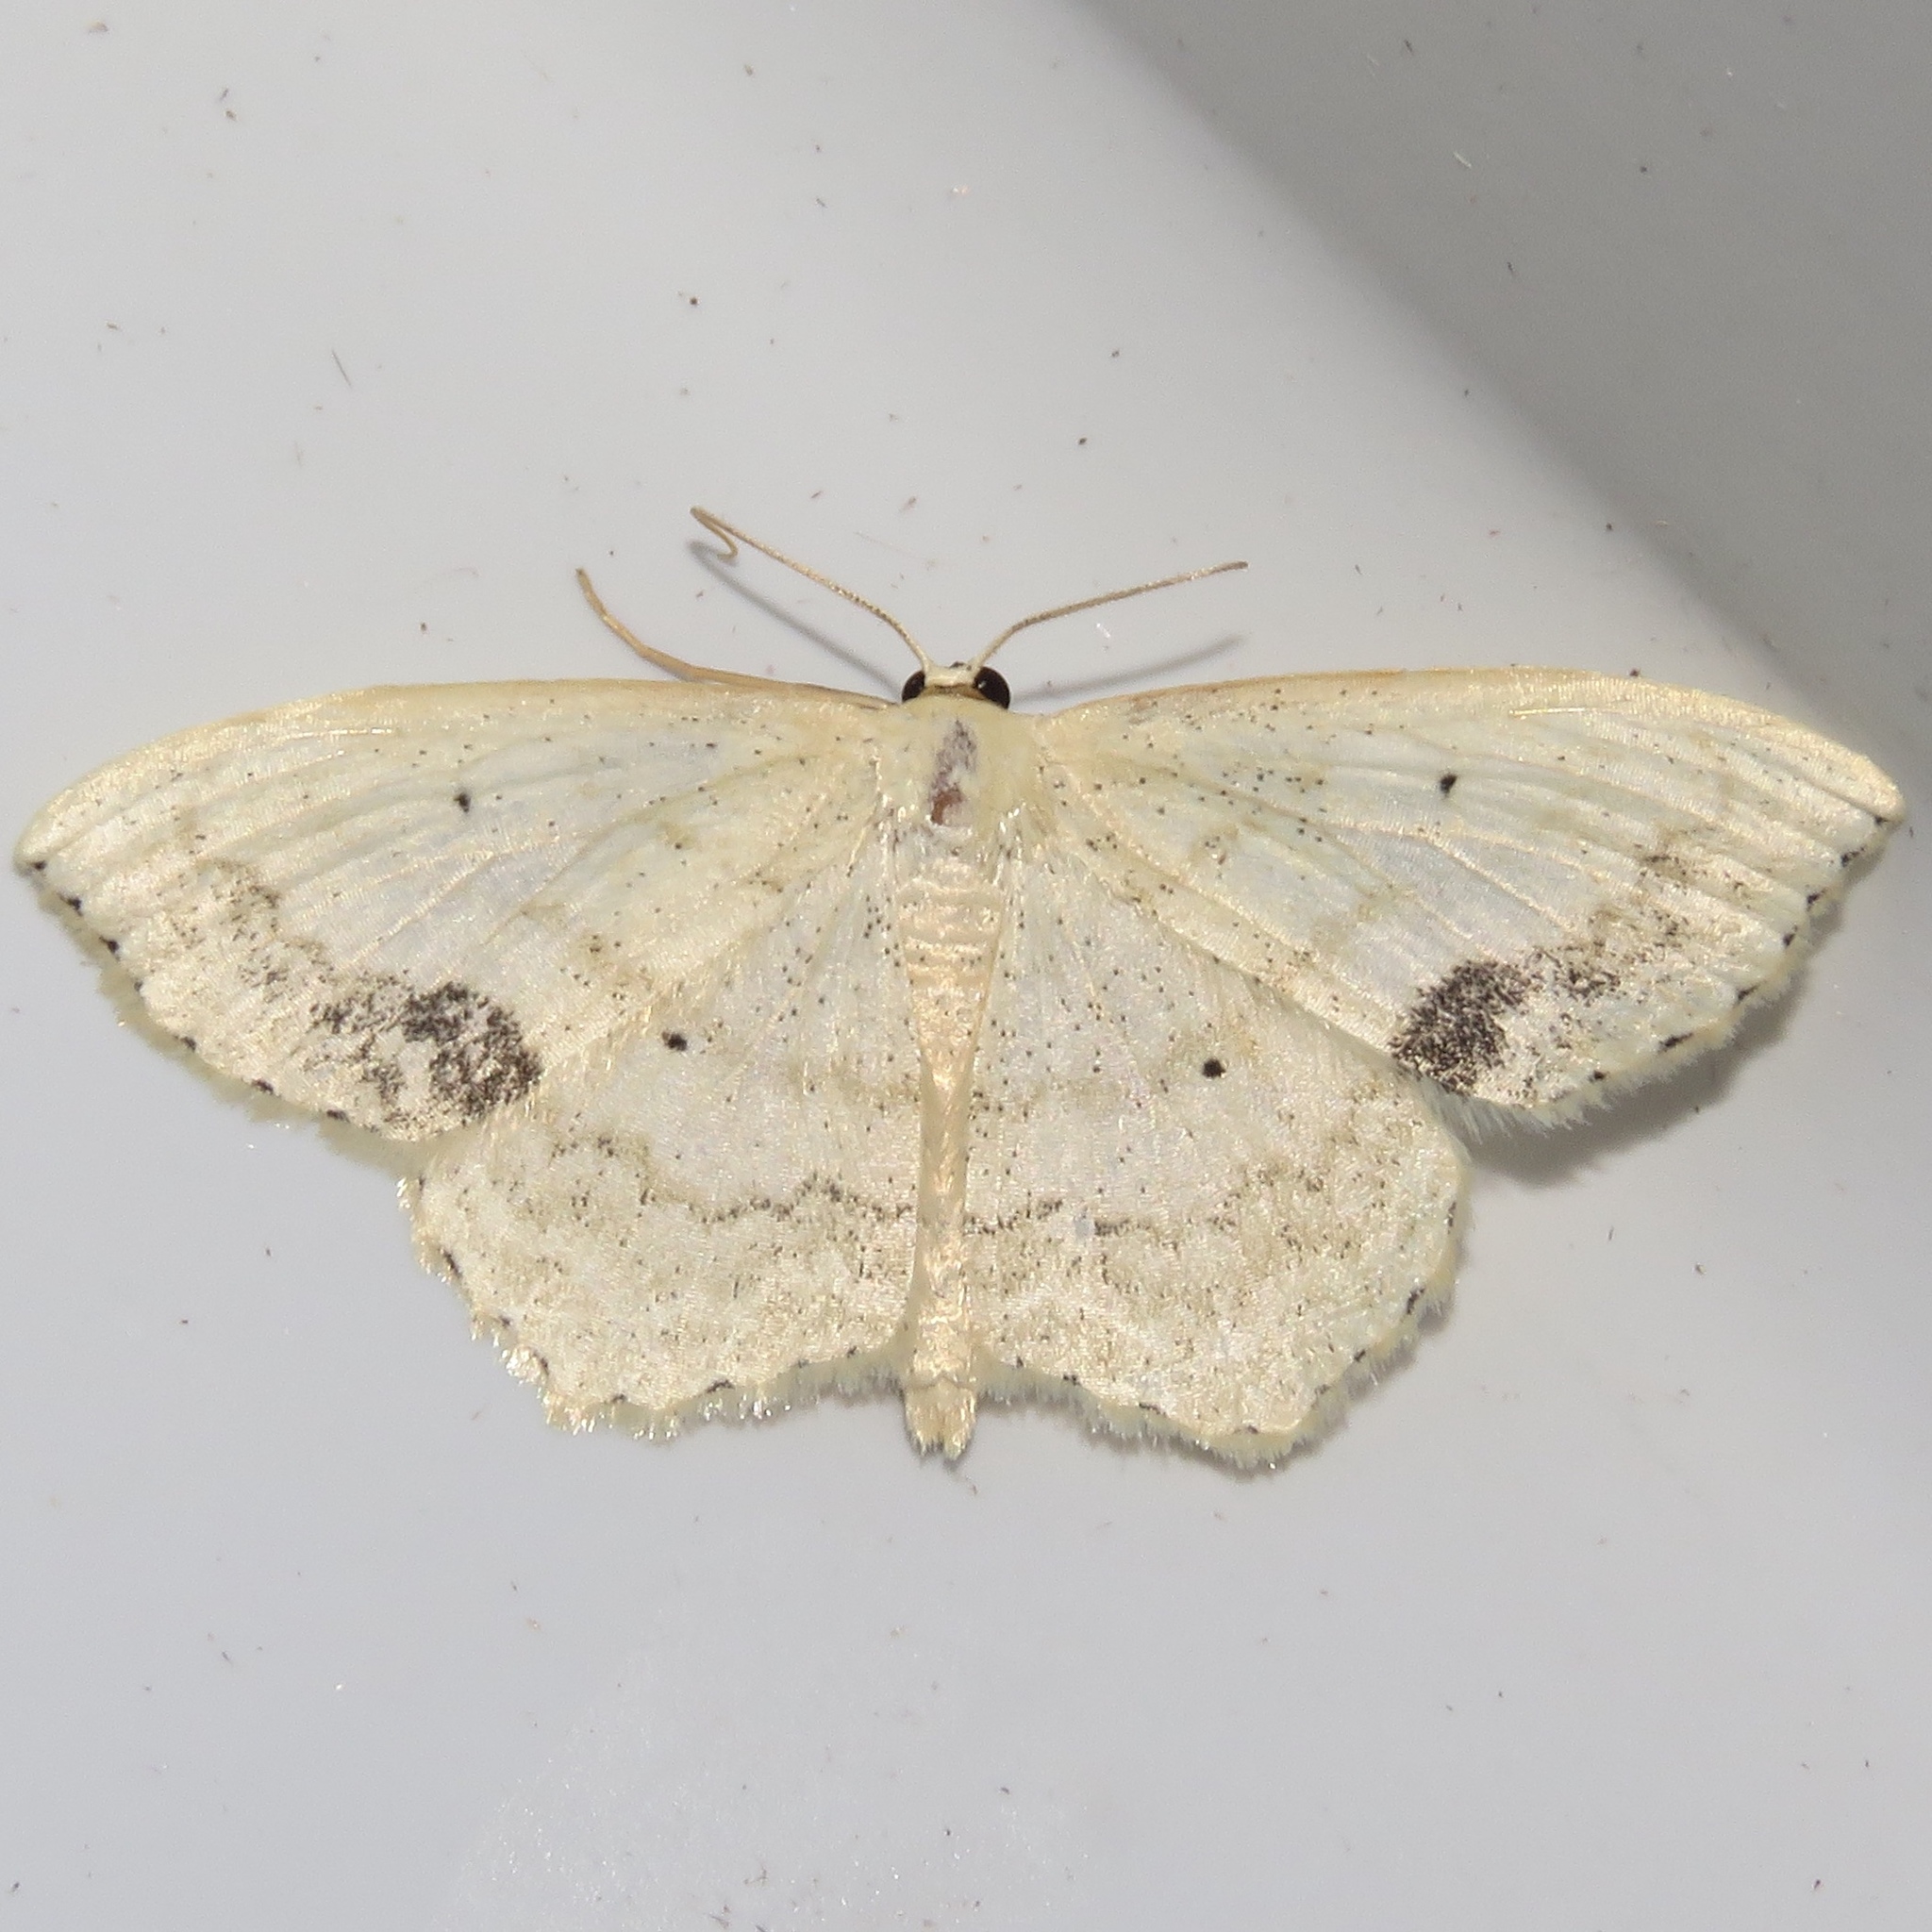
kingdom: Animalia
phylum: Arthropoda
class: Insecta
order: Lepidoptera
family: Geometridae
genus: Scopula
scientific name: Scopula limboundata
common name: Large lace border
